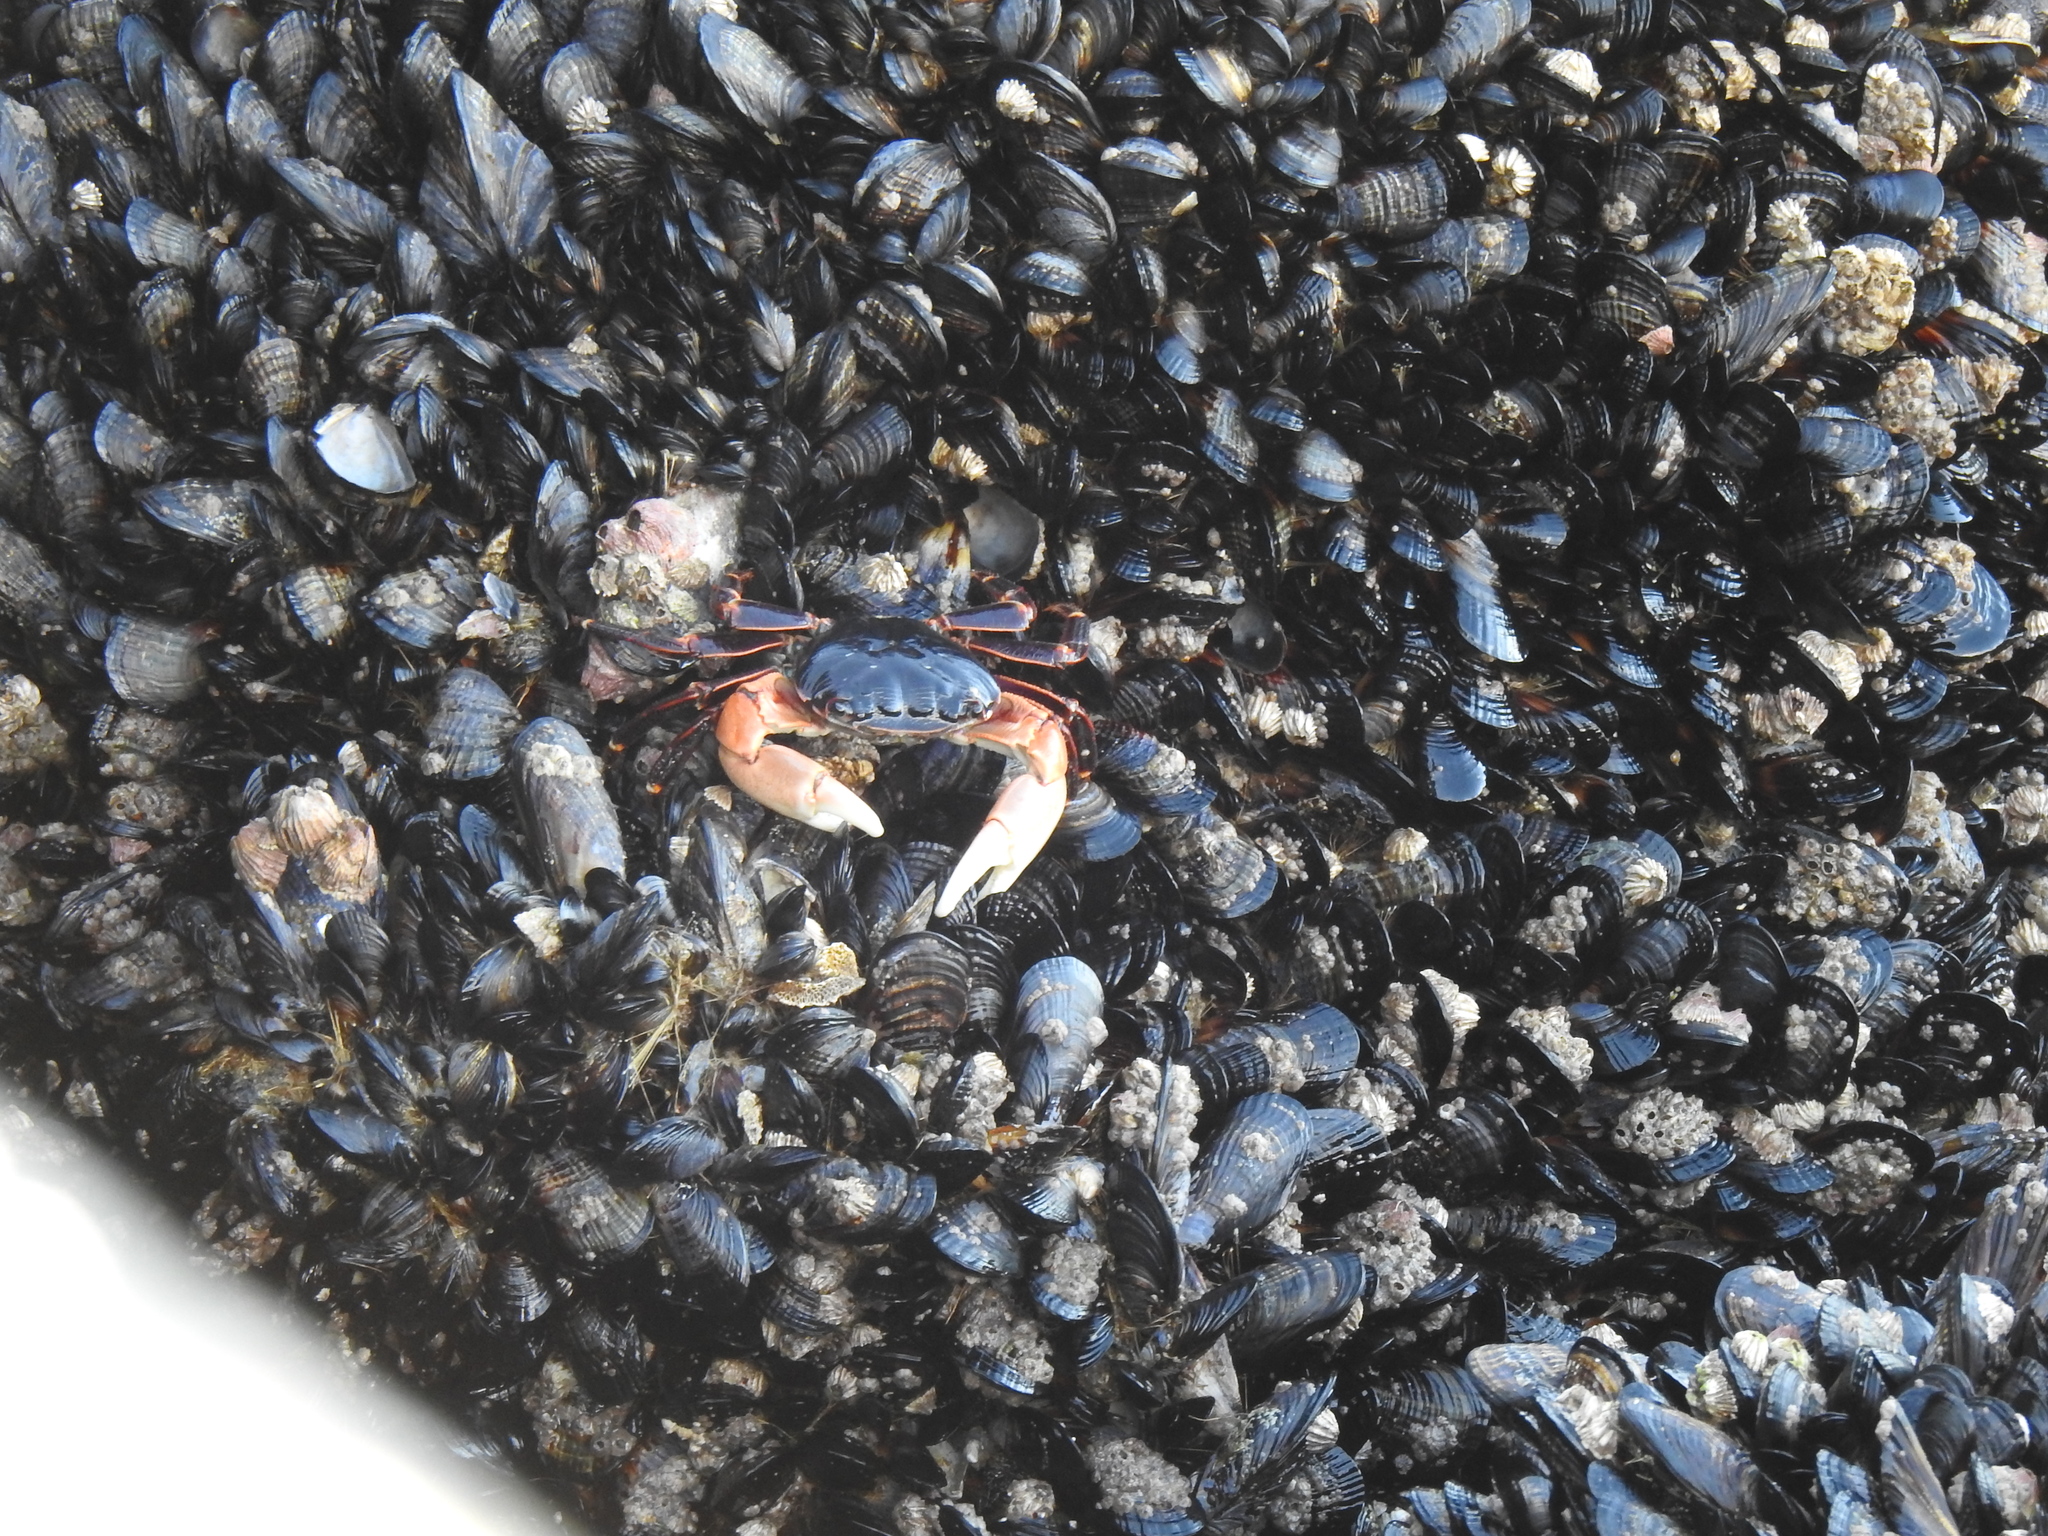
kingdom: Animalia
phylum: Arthropoda
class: Malacostraca
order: Decapoda
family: Grapsidae
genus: Pachygrapsus
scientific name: Pachygrapsus crassipes
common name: Striped shore crab
